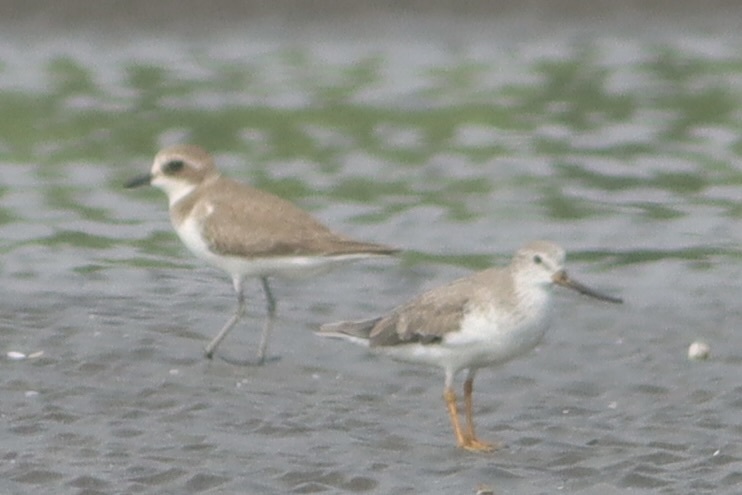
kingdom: Animalia
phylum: Chordata
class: Aves
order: Charadriiformes
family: Scolopacidae
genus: Xenus
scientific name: Xenus cinereus
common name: Terek sandpiper
